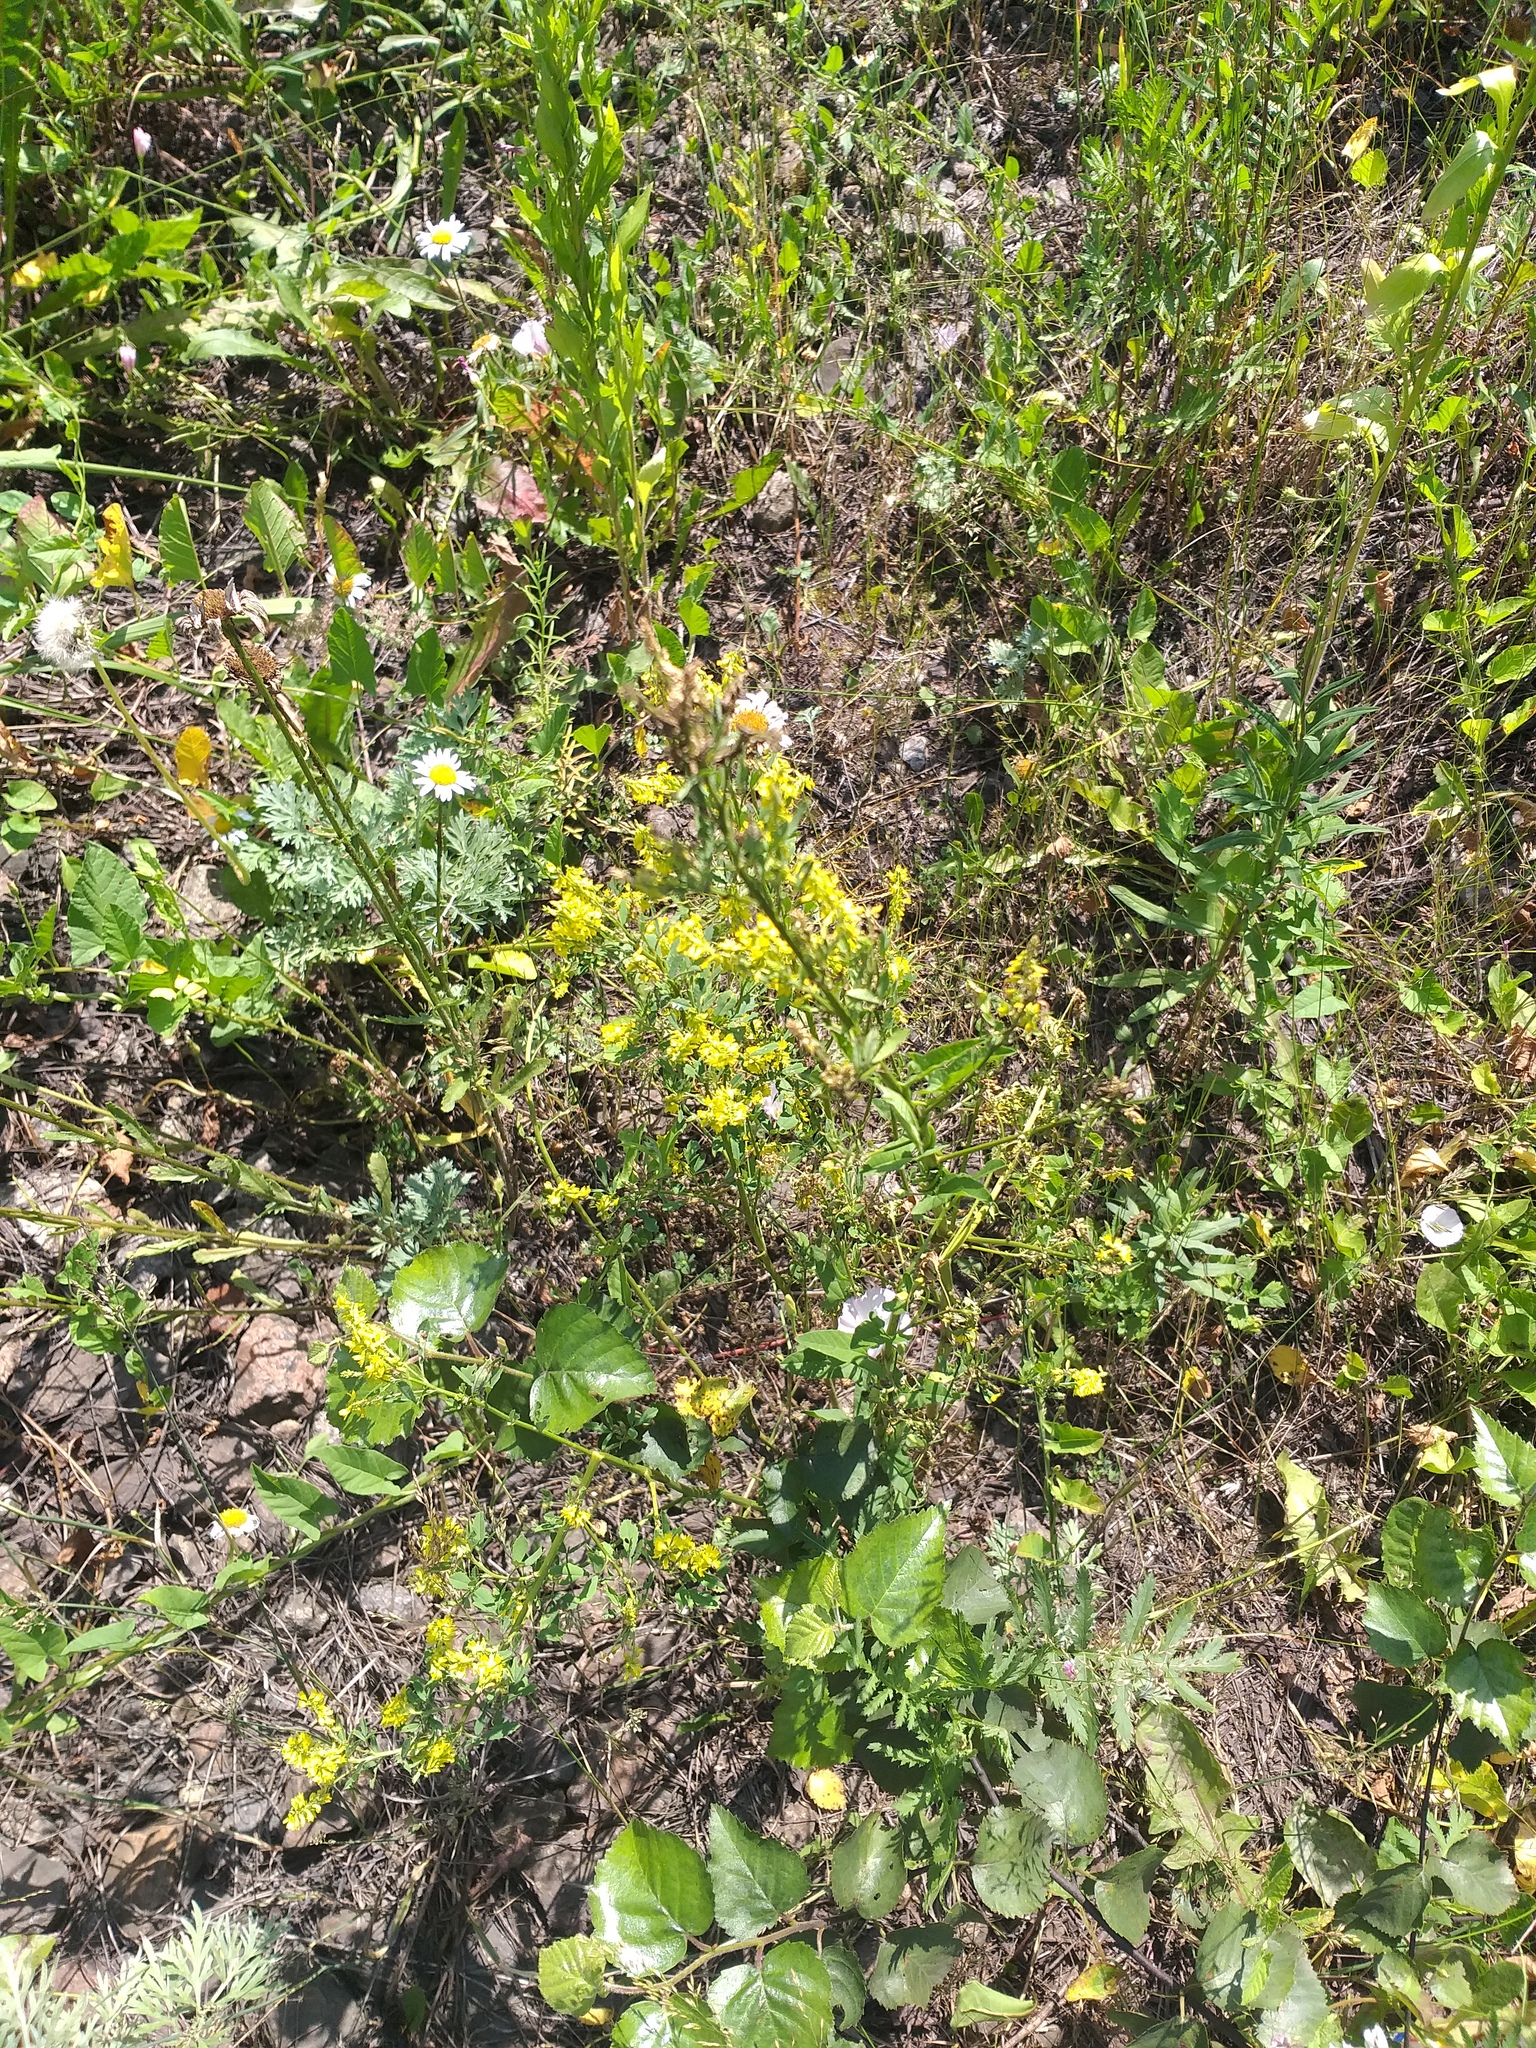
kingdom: Plantae
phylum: Tracheophyta
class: Magnoliopsida
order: Fabales
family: Fabaceae
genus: Melilotus
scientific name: Melilotus officinalis
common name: Sweetclover
